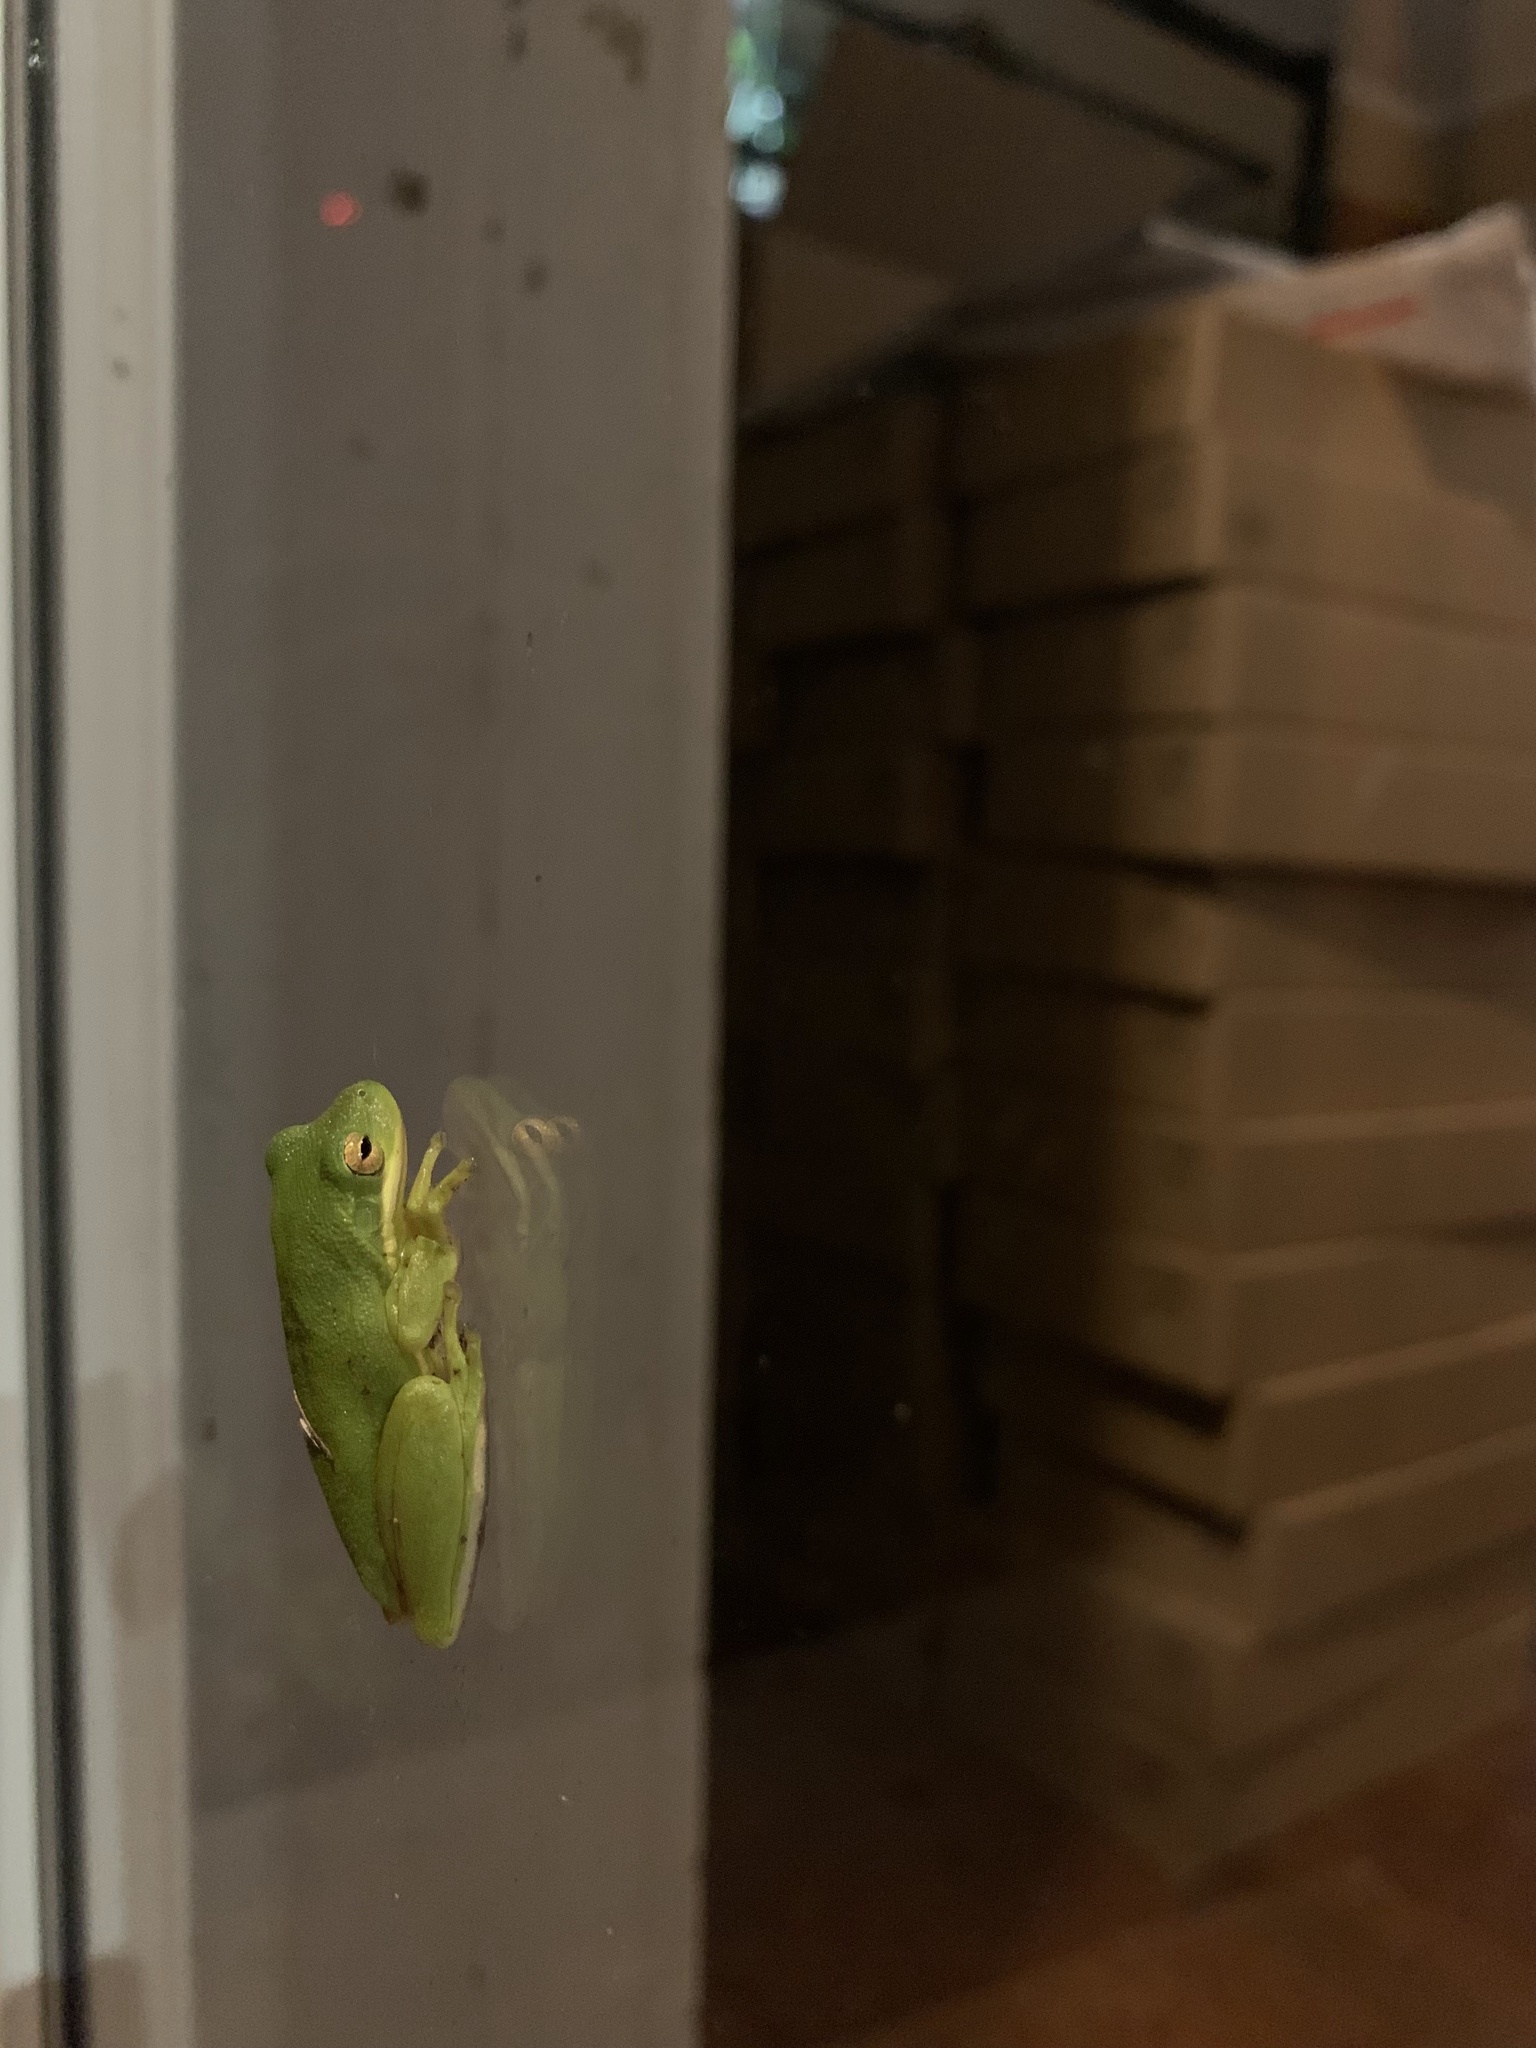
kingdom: Animalia
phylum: Chordata
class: Amphibia
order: Anura
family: Hylidae
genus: Dryophytes
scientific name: Dryophytes cinereus
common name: Green treefrog
